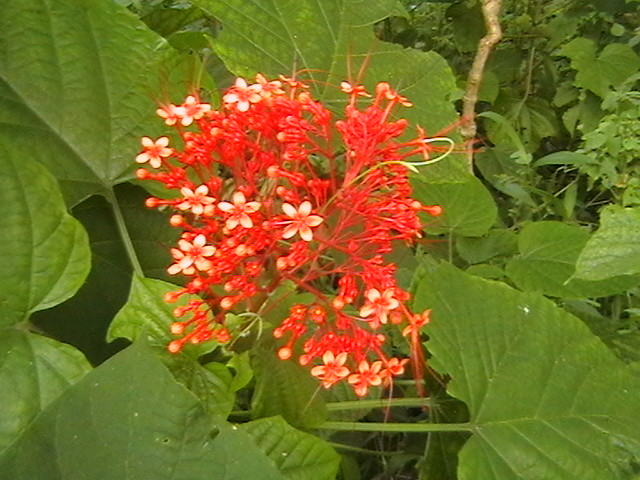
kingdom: Plantae
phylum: Tracheophyta
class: Magnoliopsida
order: Lamiales
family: Lamiaceae
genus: Clerodendrum
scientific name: Clerodendrum paniculatum
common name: Pagoda-flower
